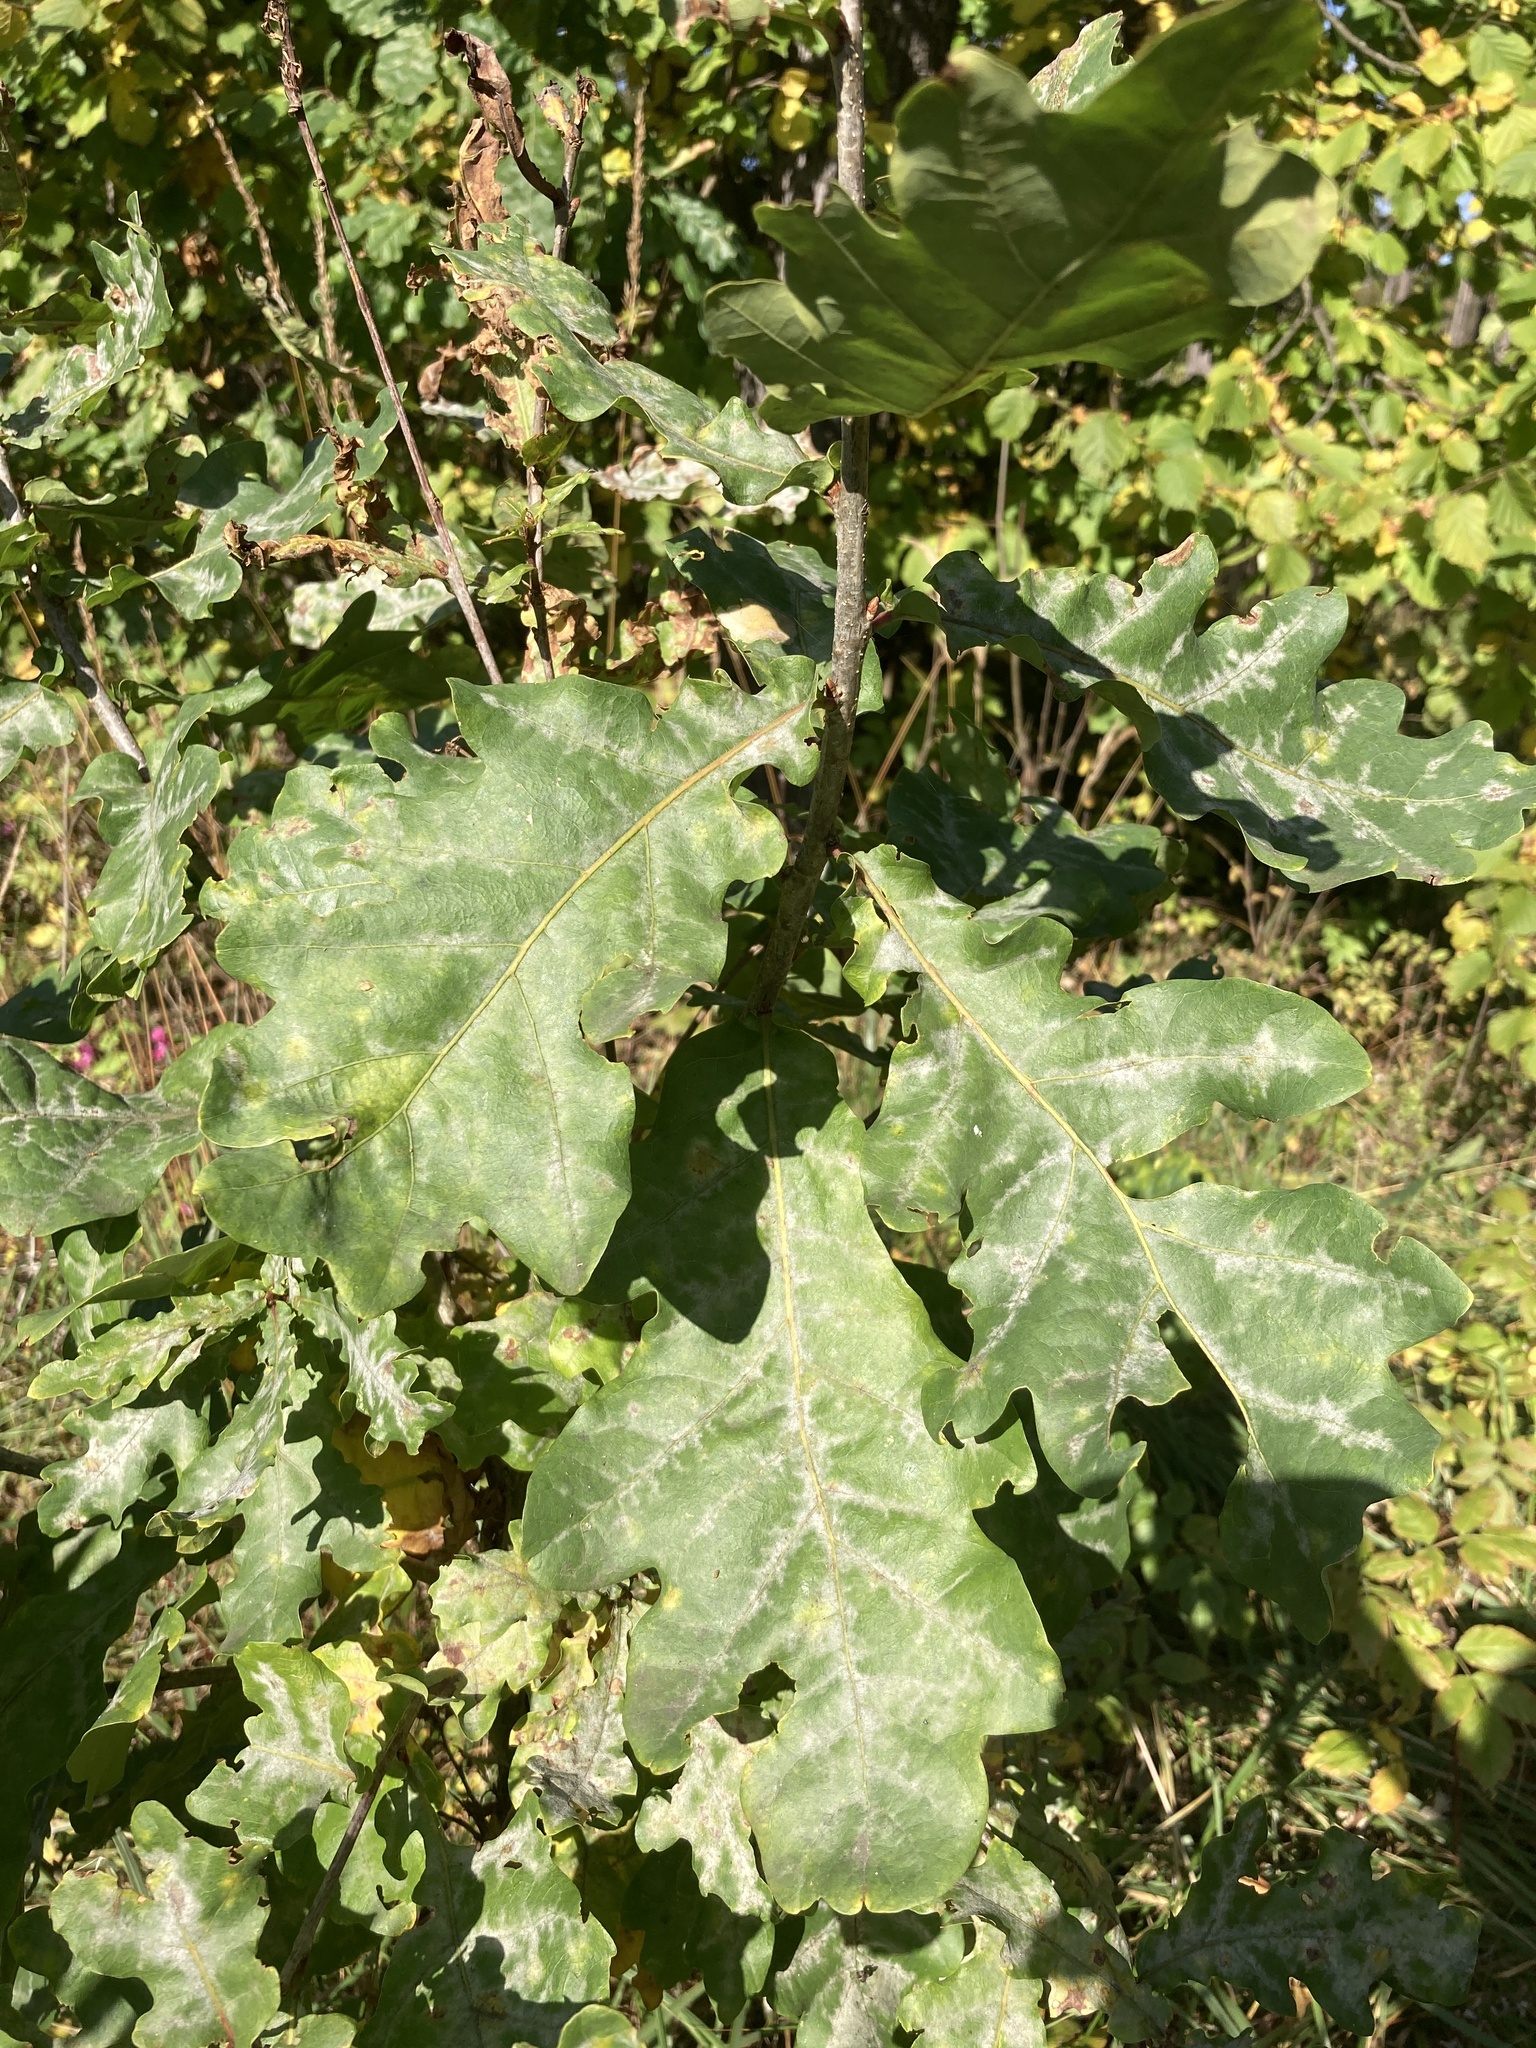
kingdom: Plantae
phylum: Tracheophyta
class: Magnoliopsida
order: Fagales
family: Fagaceae
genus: Quercus
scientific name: Quercus robur
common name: Pedunculate oak
